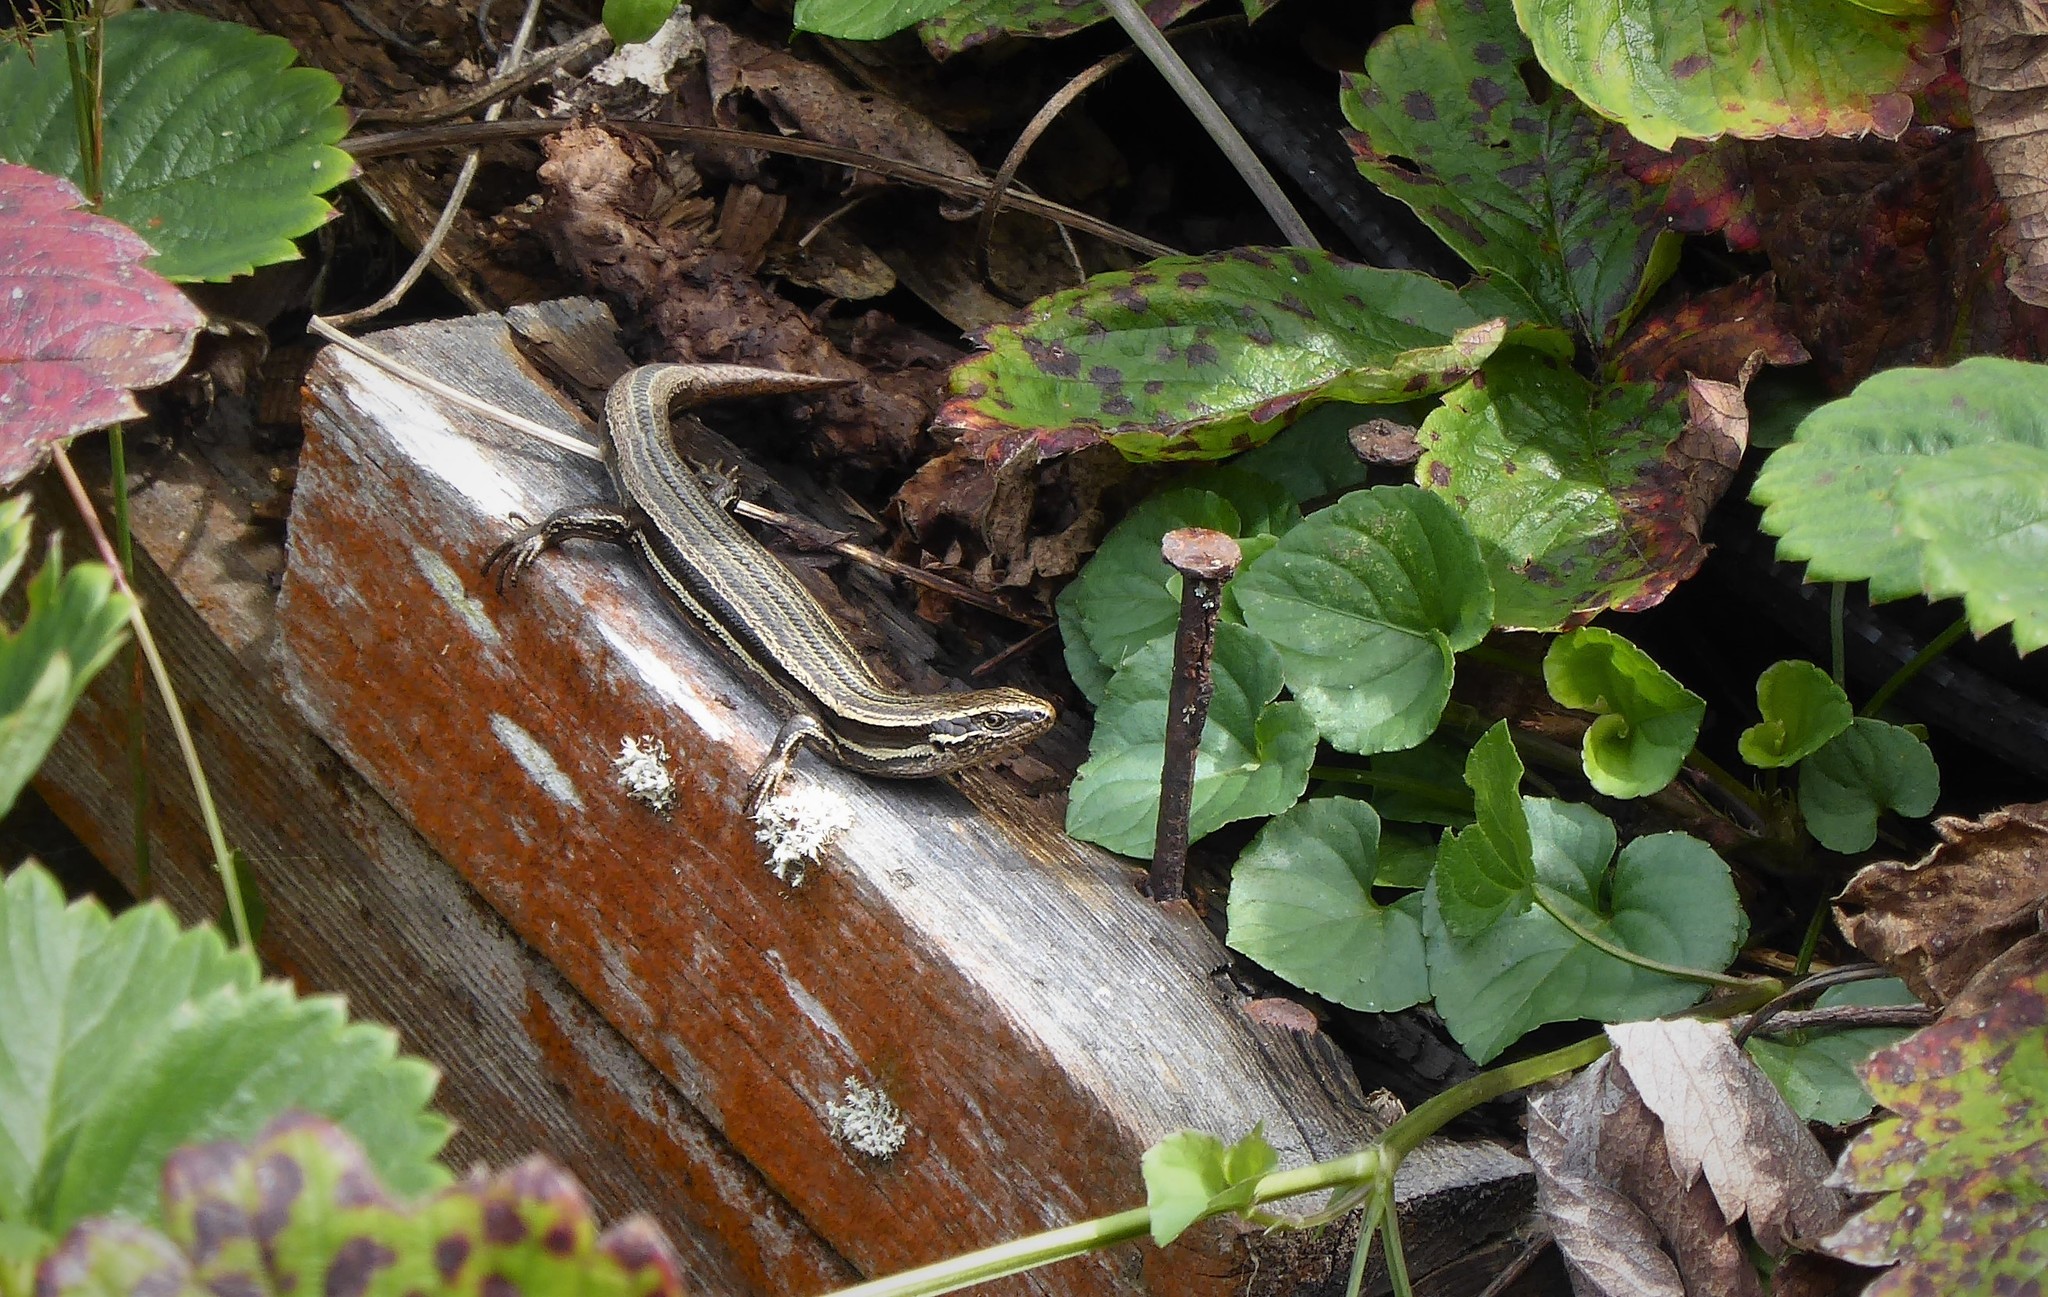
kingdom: Animalia
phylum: Chordata
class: Squamata
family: Scincidae
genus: Oligosoma
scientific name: Oligosoma polychroma
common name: Common new zealand skink
